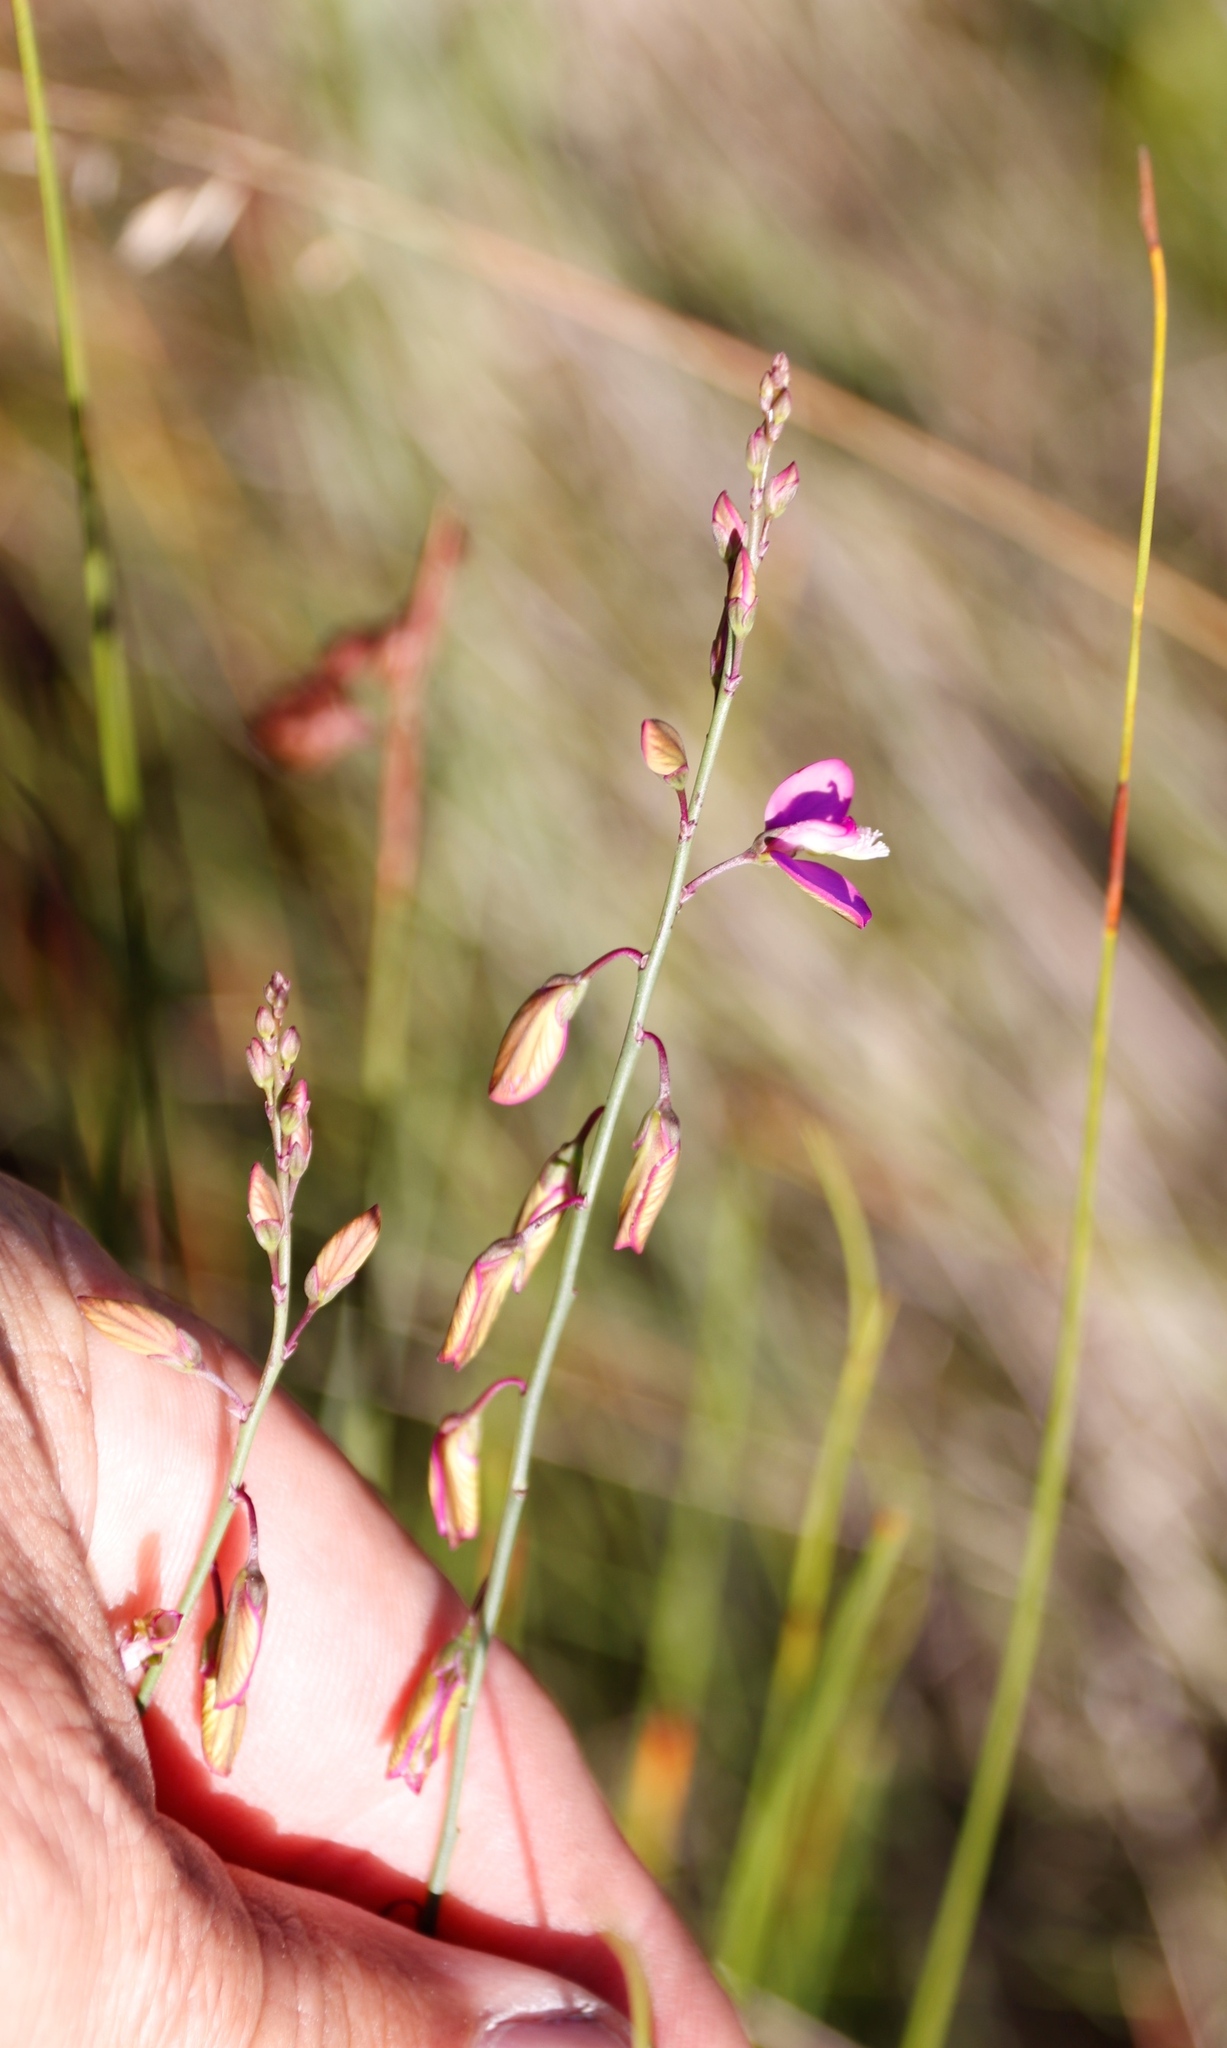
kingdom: Plantae
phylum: Tracheophyta
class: Magnoliopsida
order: Fabales
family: Polygalaceae
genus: Polygala
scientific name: Polygala garcini
